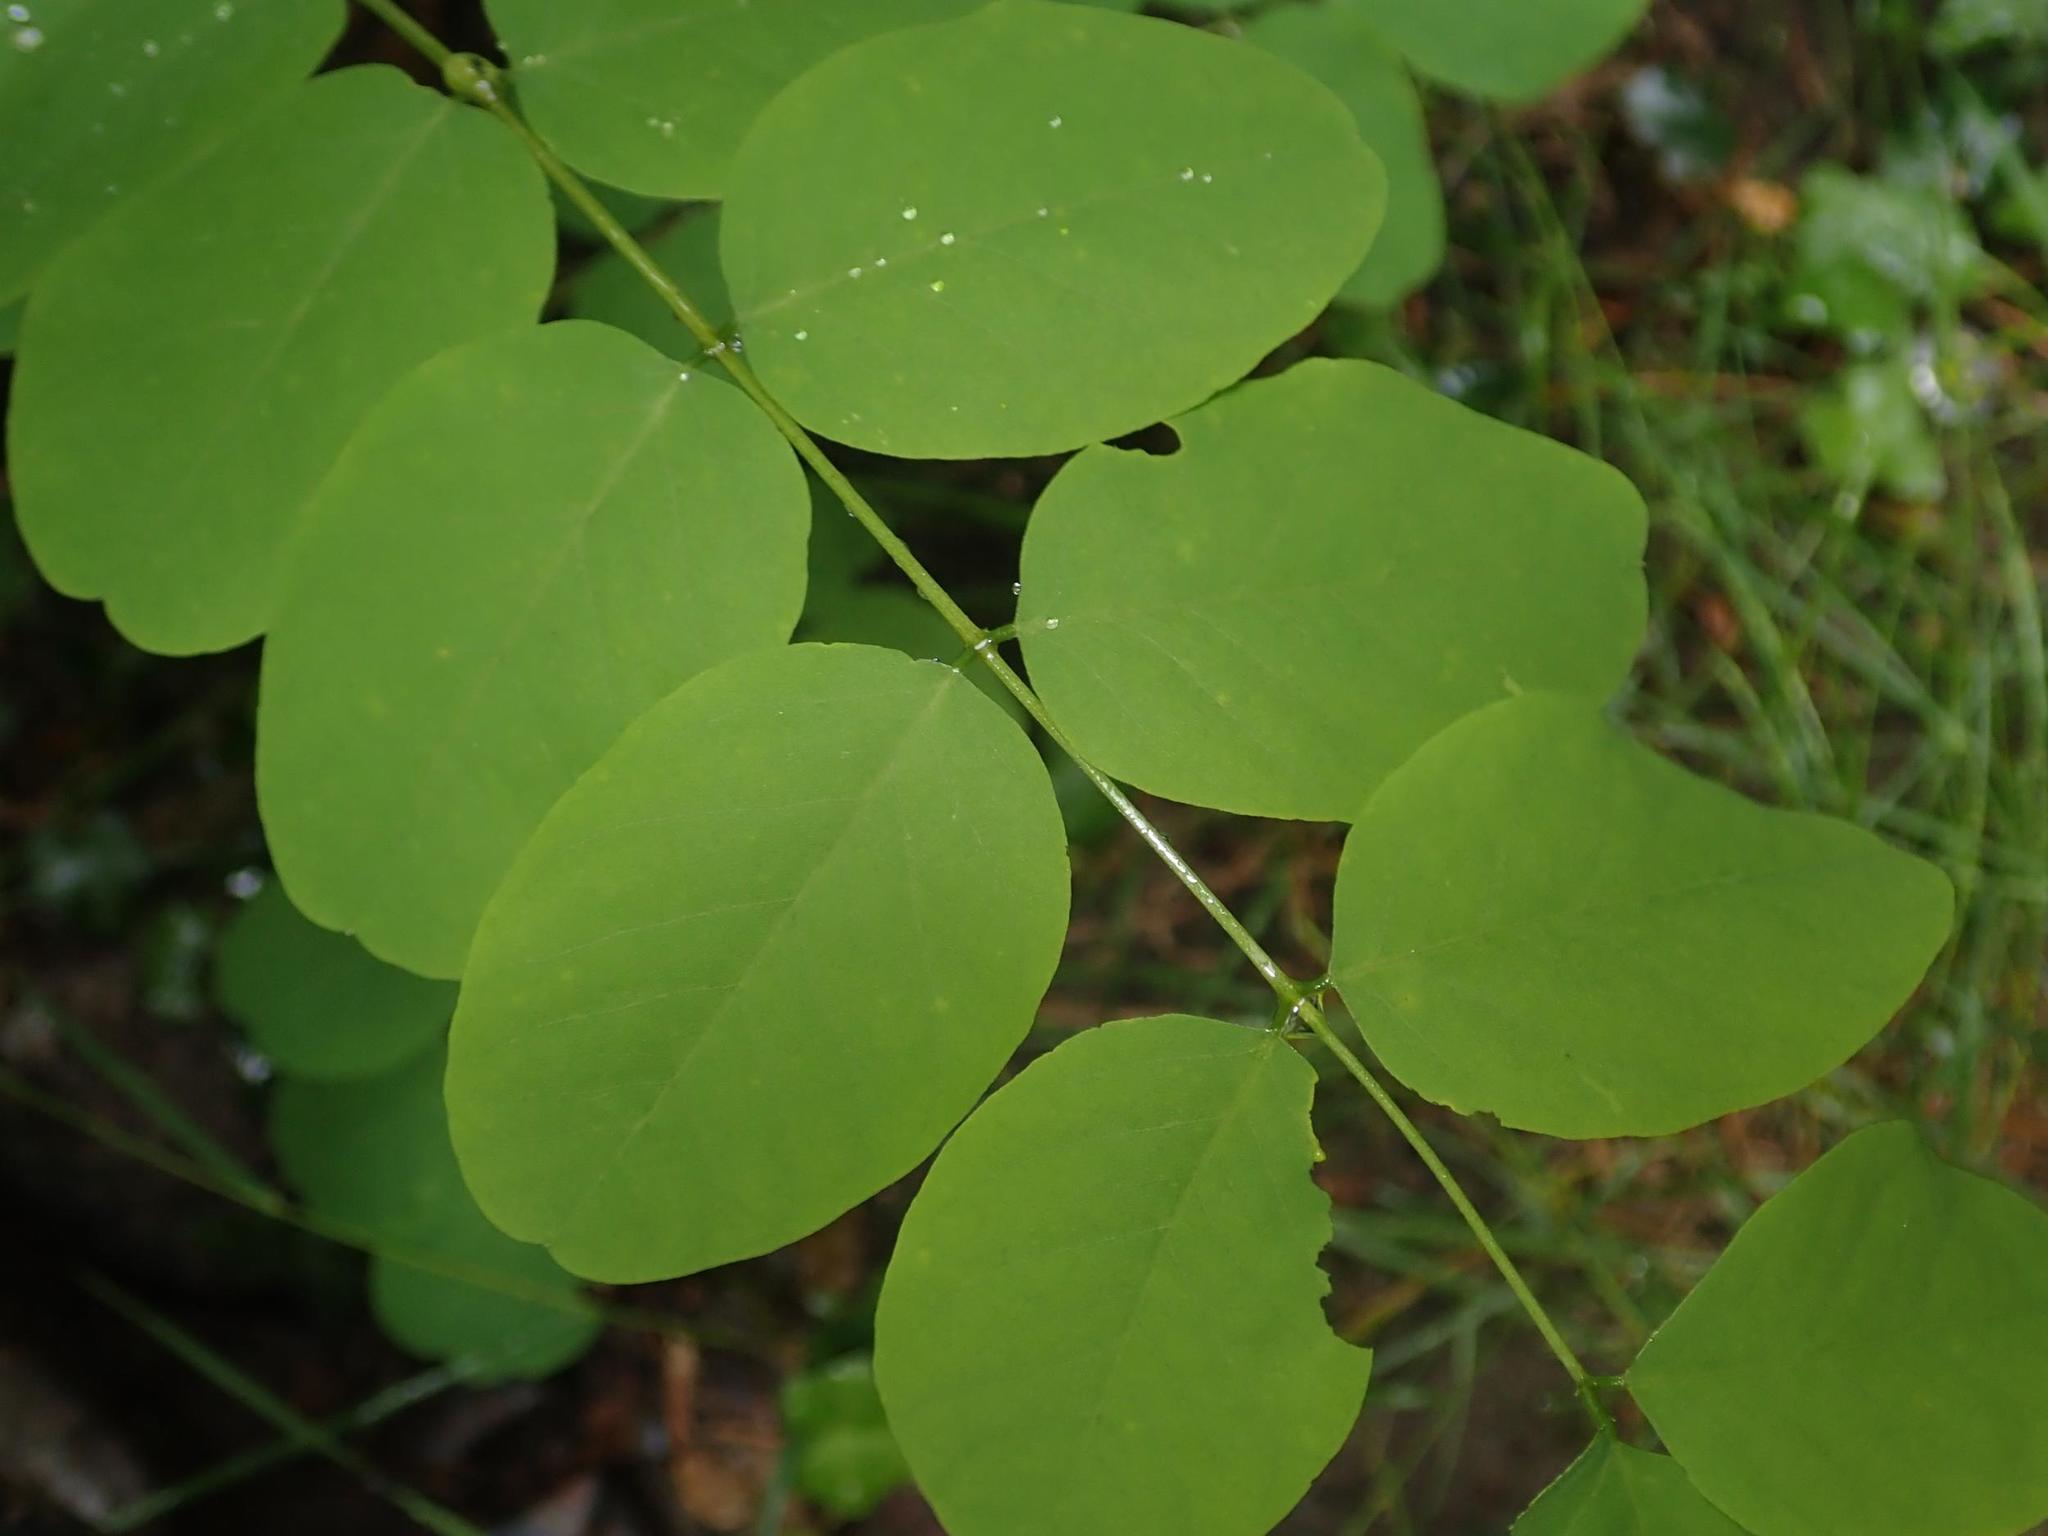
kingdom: Plantae
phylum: Tracheophyta
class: Magnoliopsida
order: Fabales
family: Fabaceae
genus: Robinia
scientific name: Robinia pseudoacacia
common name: Black locust
